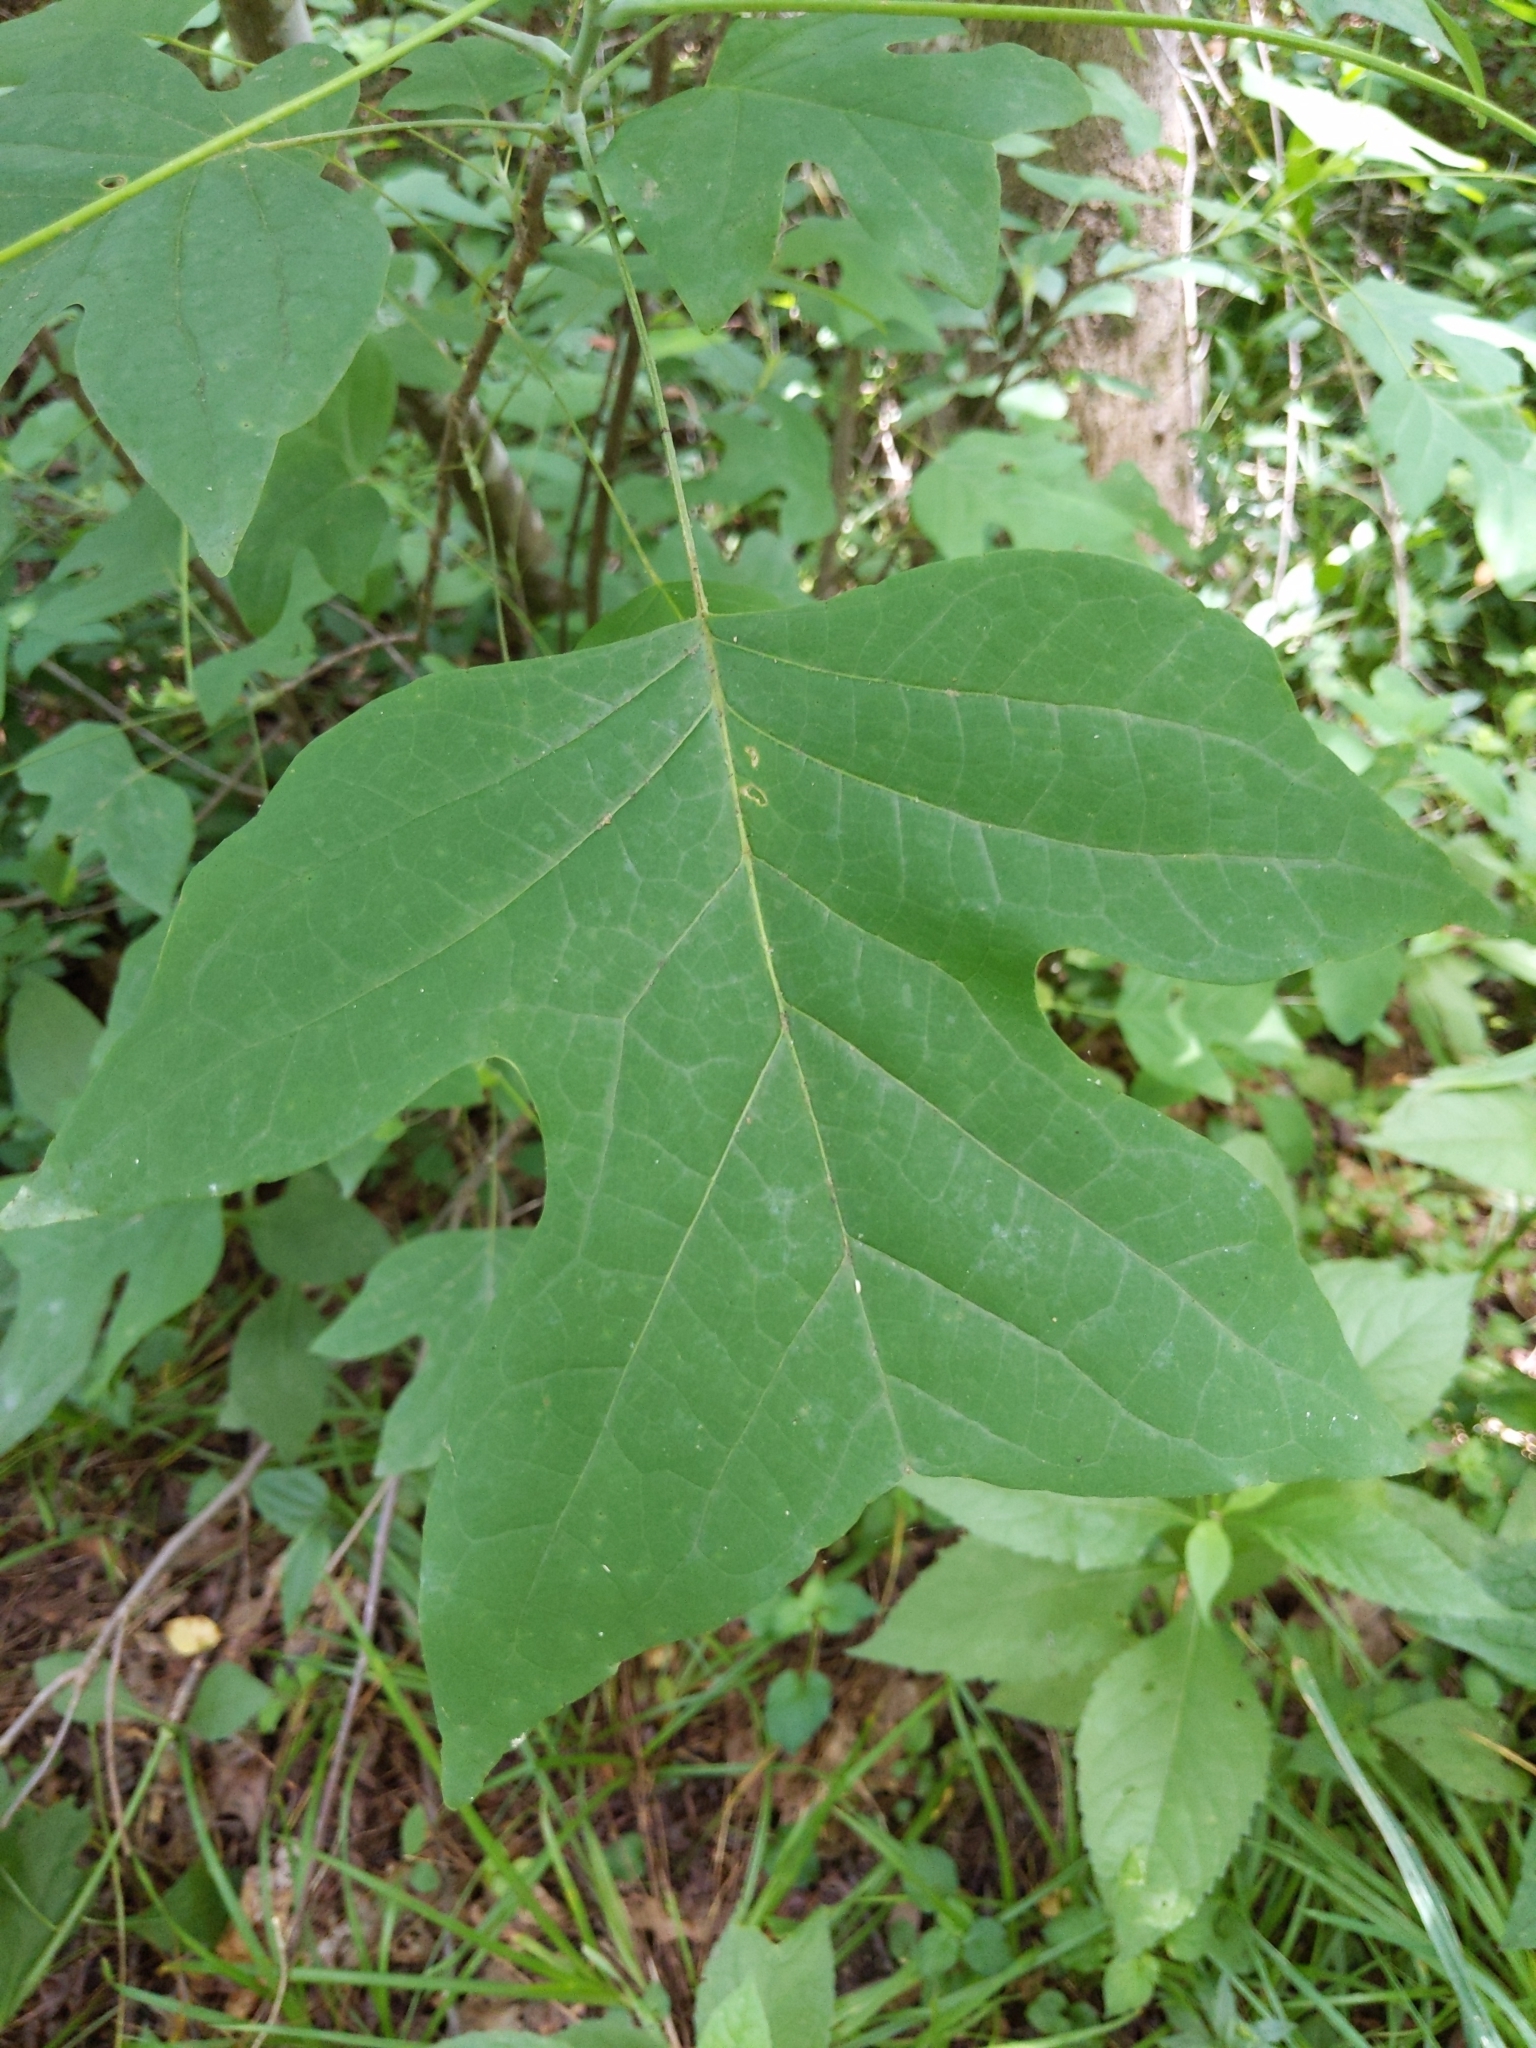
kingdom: Plantae
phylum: Tracheophyta
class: Magnoliopsida
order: Magnoliales
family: Magnoliaceae
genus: Liriodendron
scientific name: Liriodendron tulipifera
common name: Tulip tree
